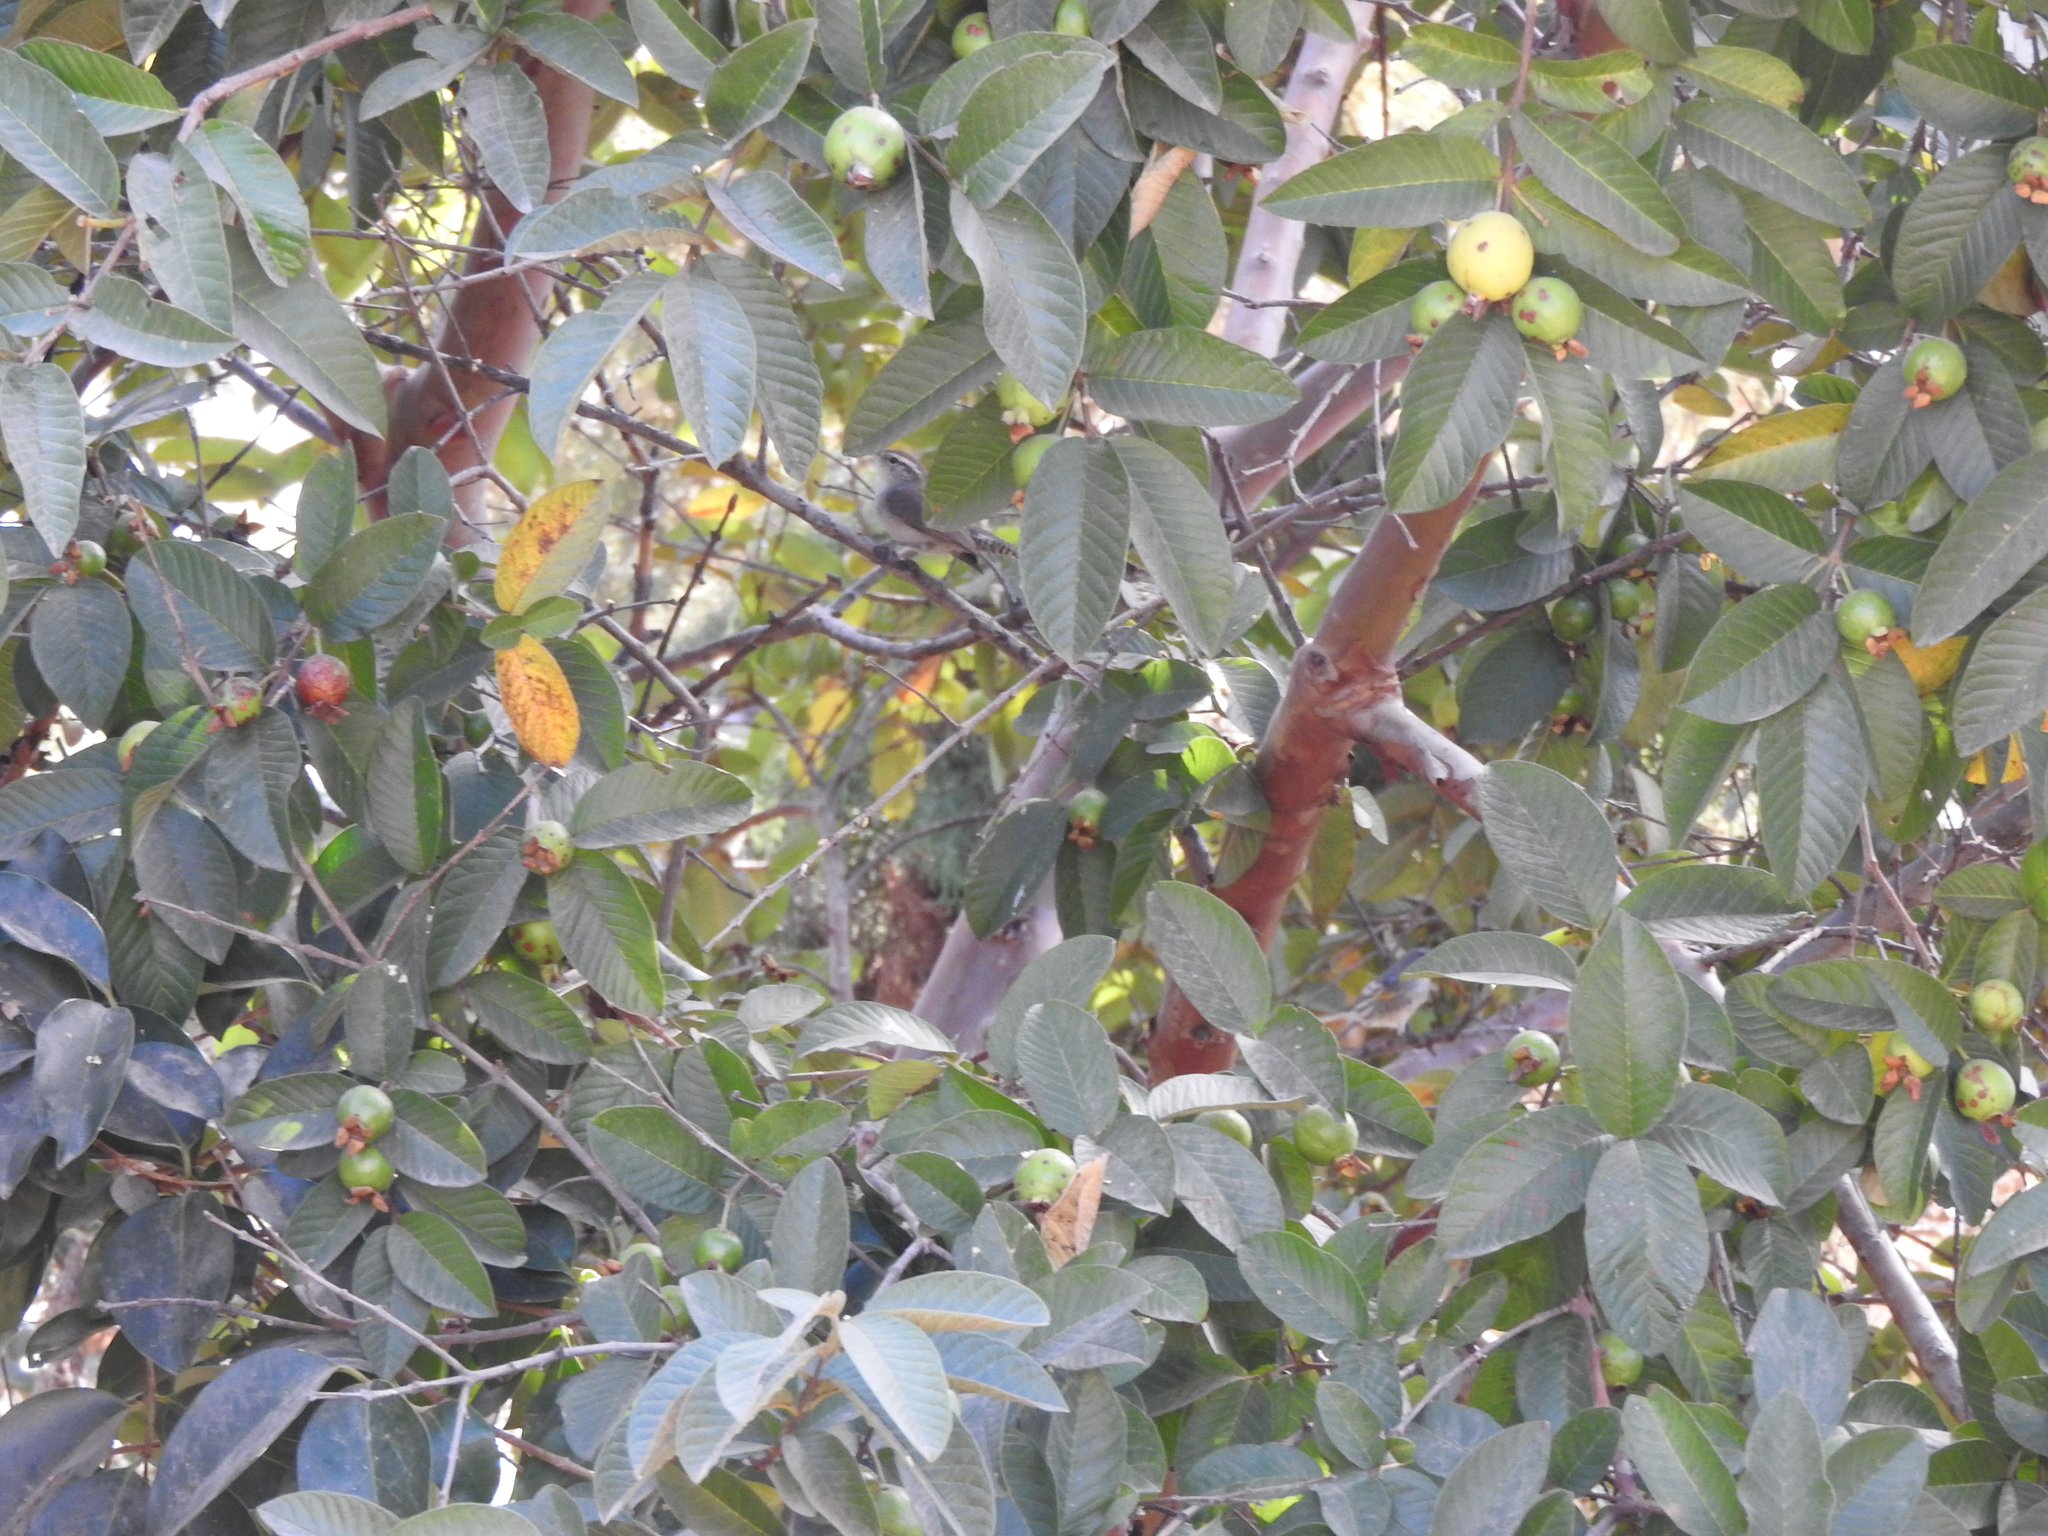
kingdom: Animalia
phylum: Chordata
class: Aves
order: Passeriformes
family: Troglodytidae
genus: Thryomanes
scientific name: Thryomanes bewickii
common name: Bewick's wren
